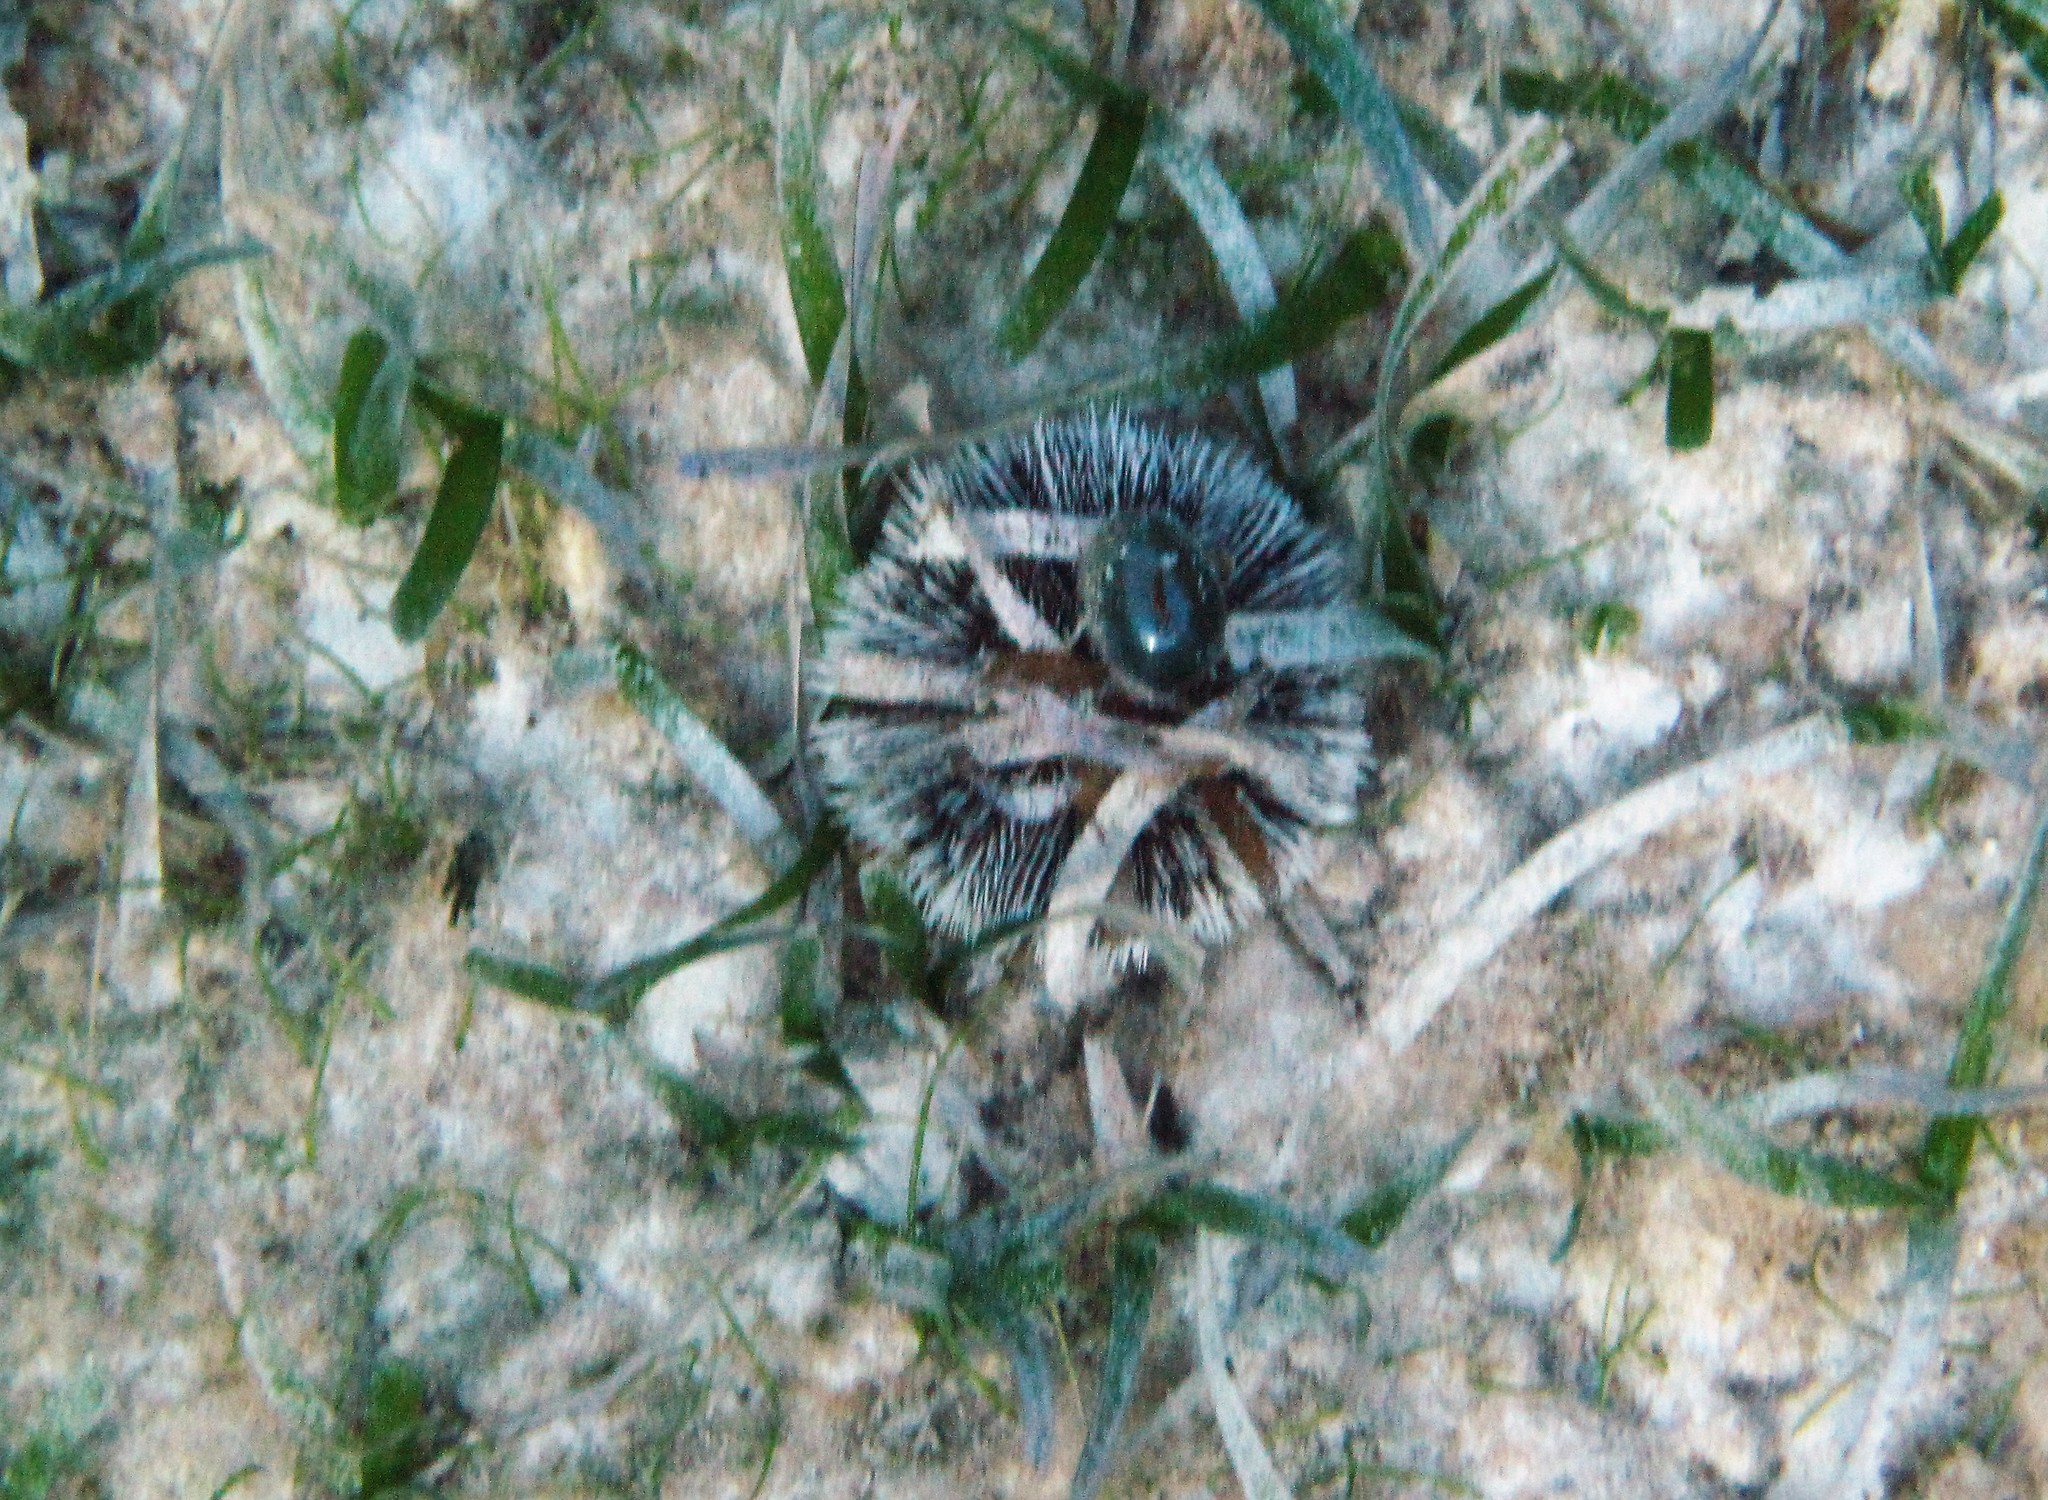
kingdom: Animalia
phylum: Echinodermata
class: Echinoidea
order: Camarodonta
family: Toxopneustidae
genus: Tripneustes
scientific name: Tripneustes ventricosus
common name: West indian sea egg
